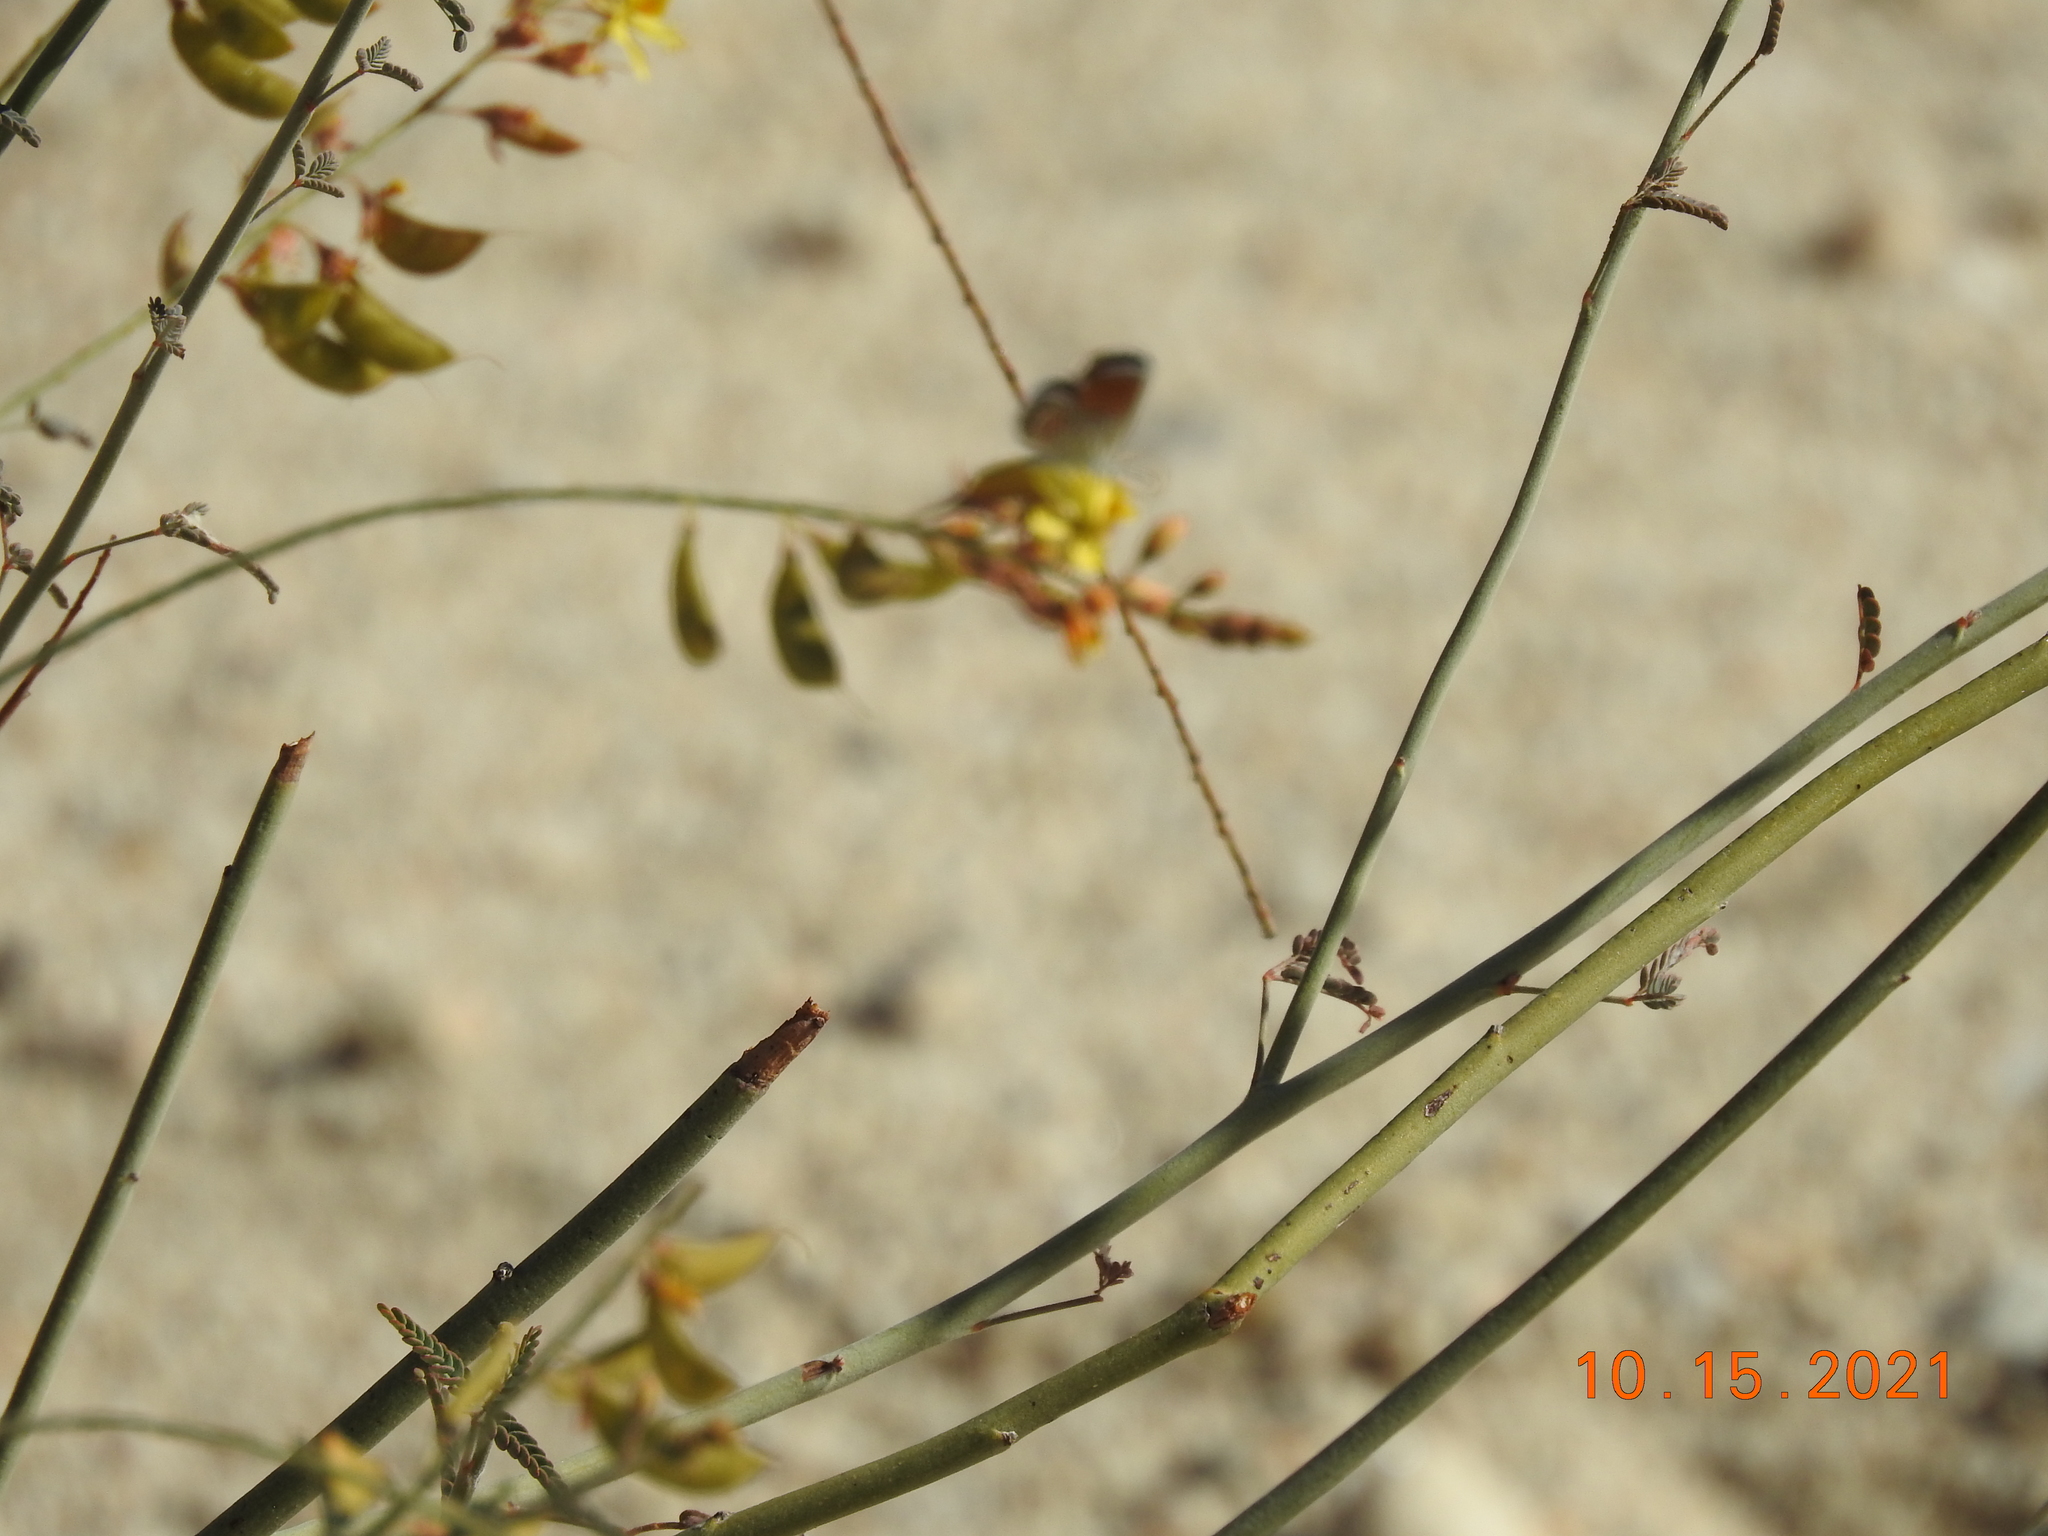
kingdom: Plantae
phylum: Tracheophyta
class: Magnoliopsida
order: Fabales
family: Fabaceae
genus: Hoffmannseggia
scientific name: Hoffmannseggia microphylla
